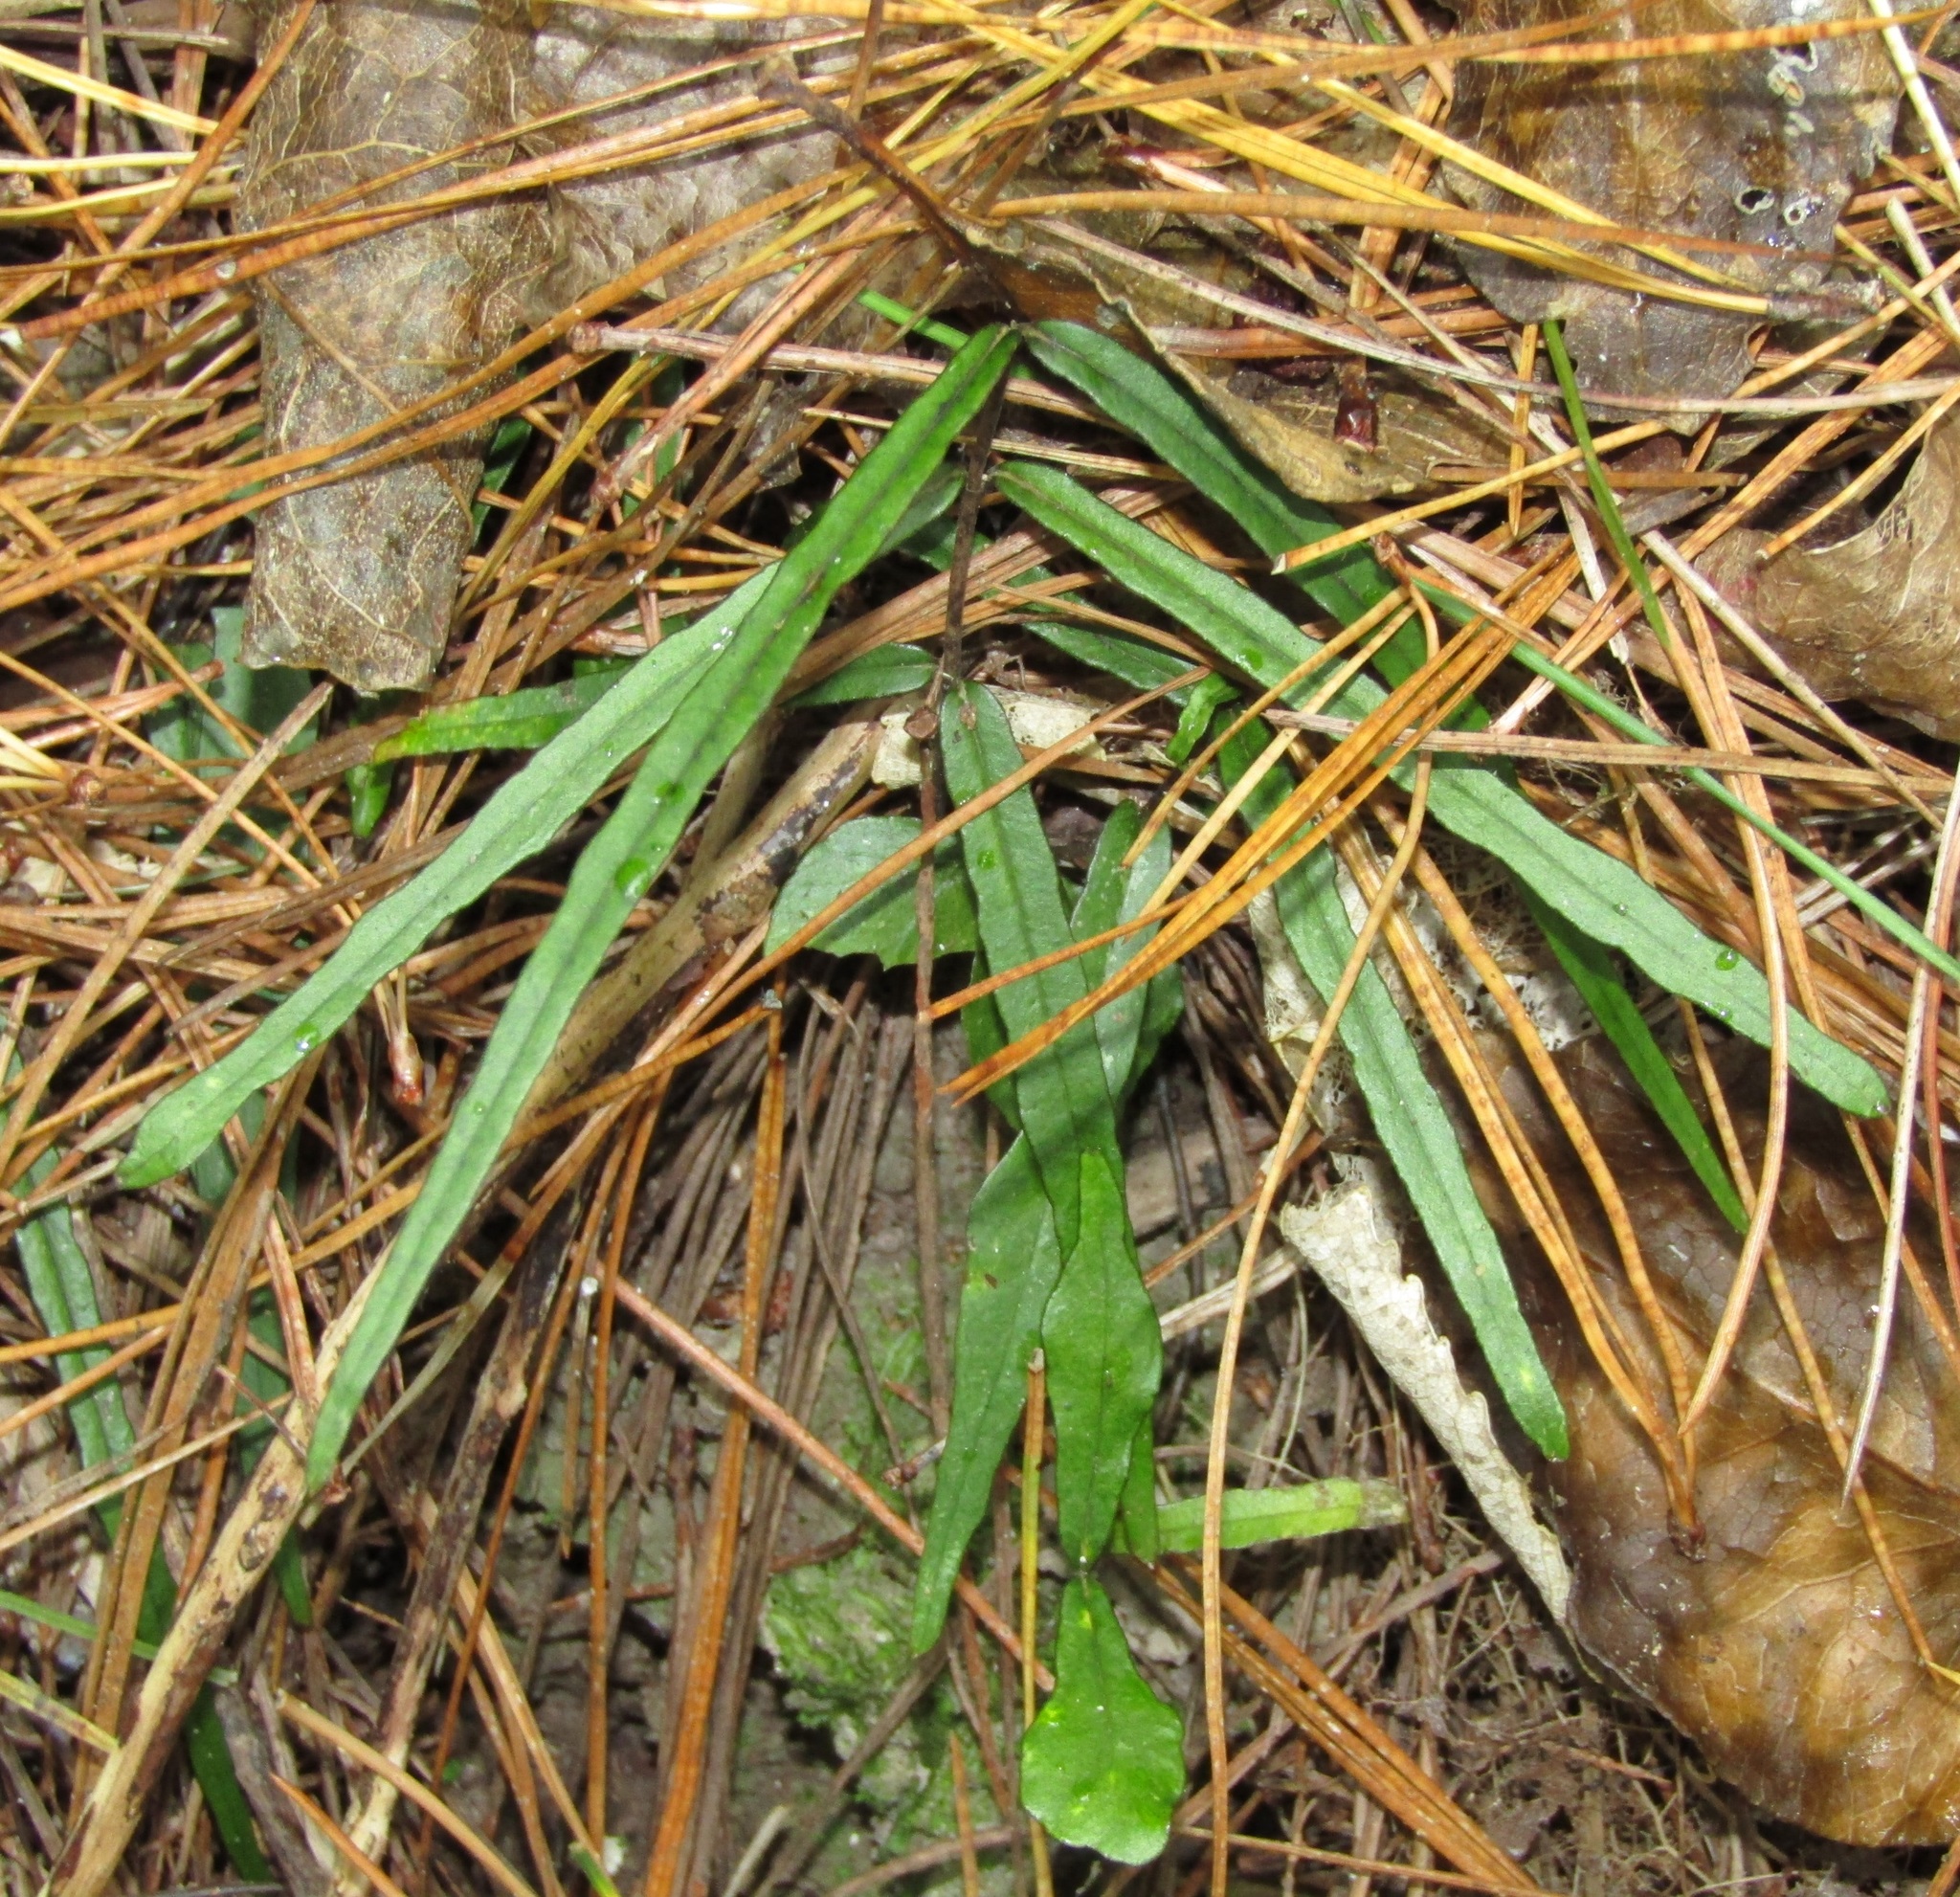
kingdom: Plantae
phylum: Tracheophyta
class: Magnoliopsida
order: Gentianales
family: Apocynaceae
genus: Parsonsia
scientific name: Parsonsia heterophylla
